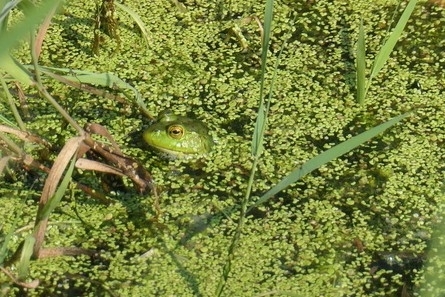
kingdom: Animalia
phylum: Chordata
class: Amphibia
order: Anura
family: Ranidae
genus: Lithobates
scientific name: Lithobates catesbeianus
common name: American bullfrog
